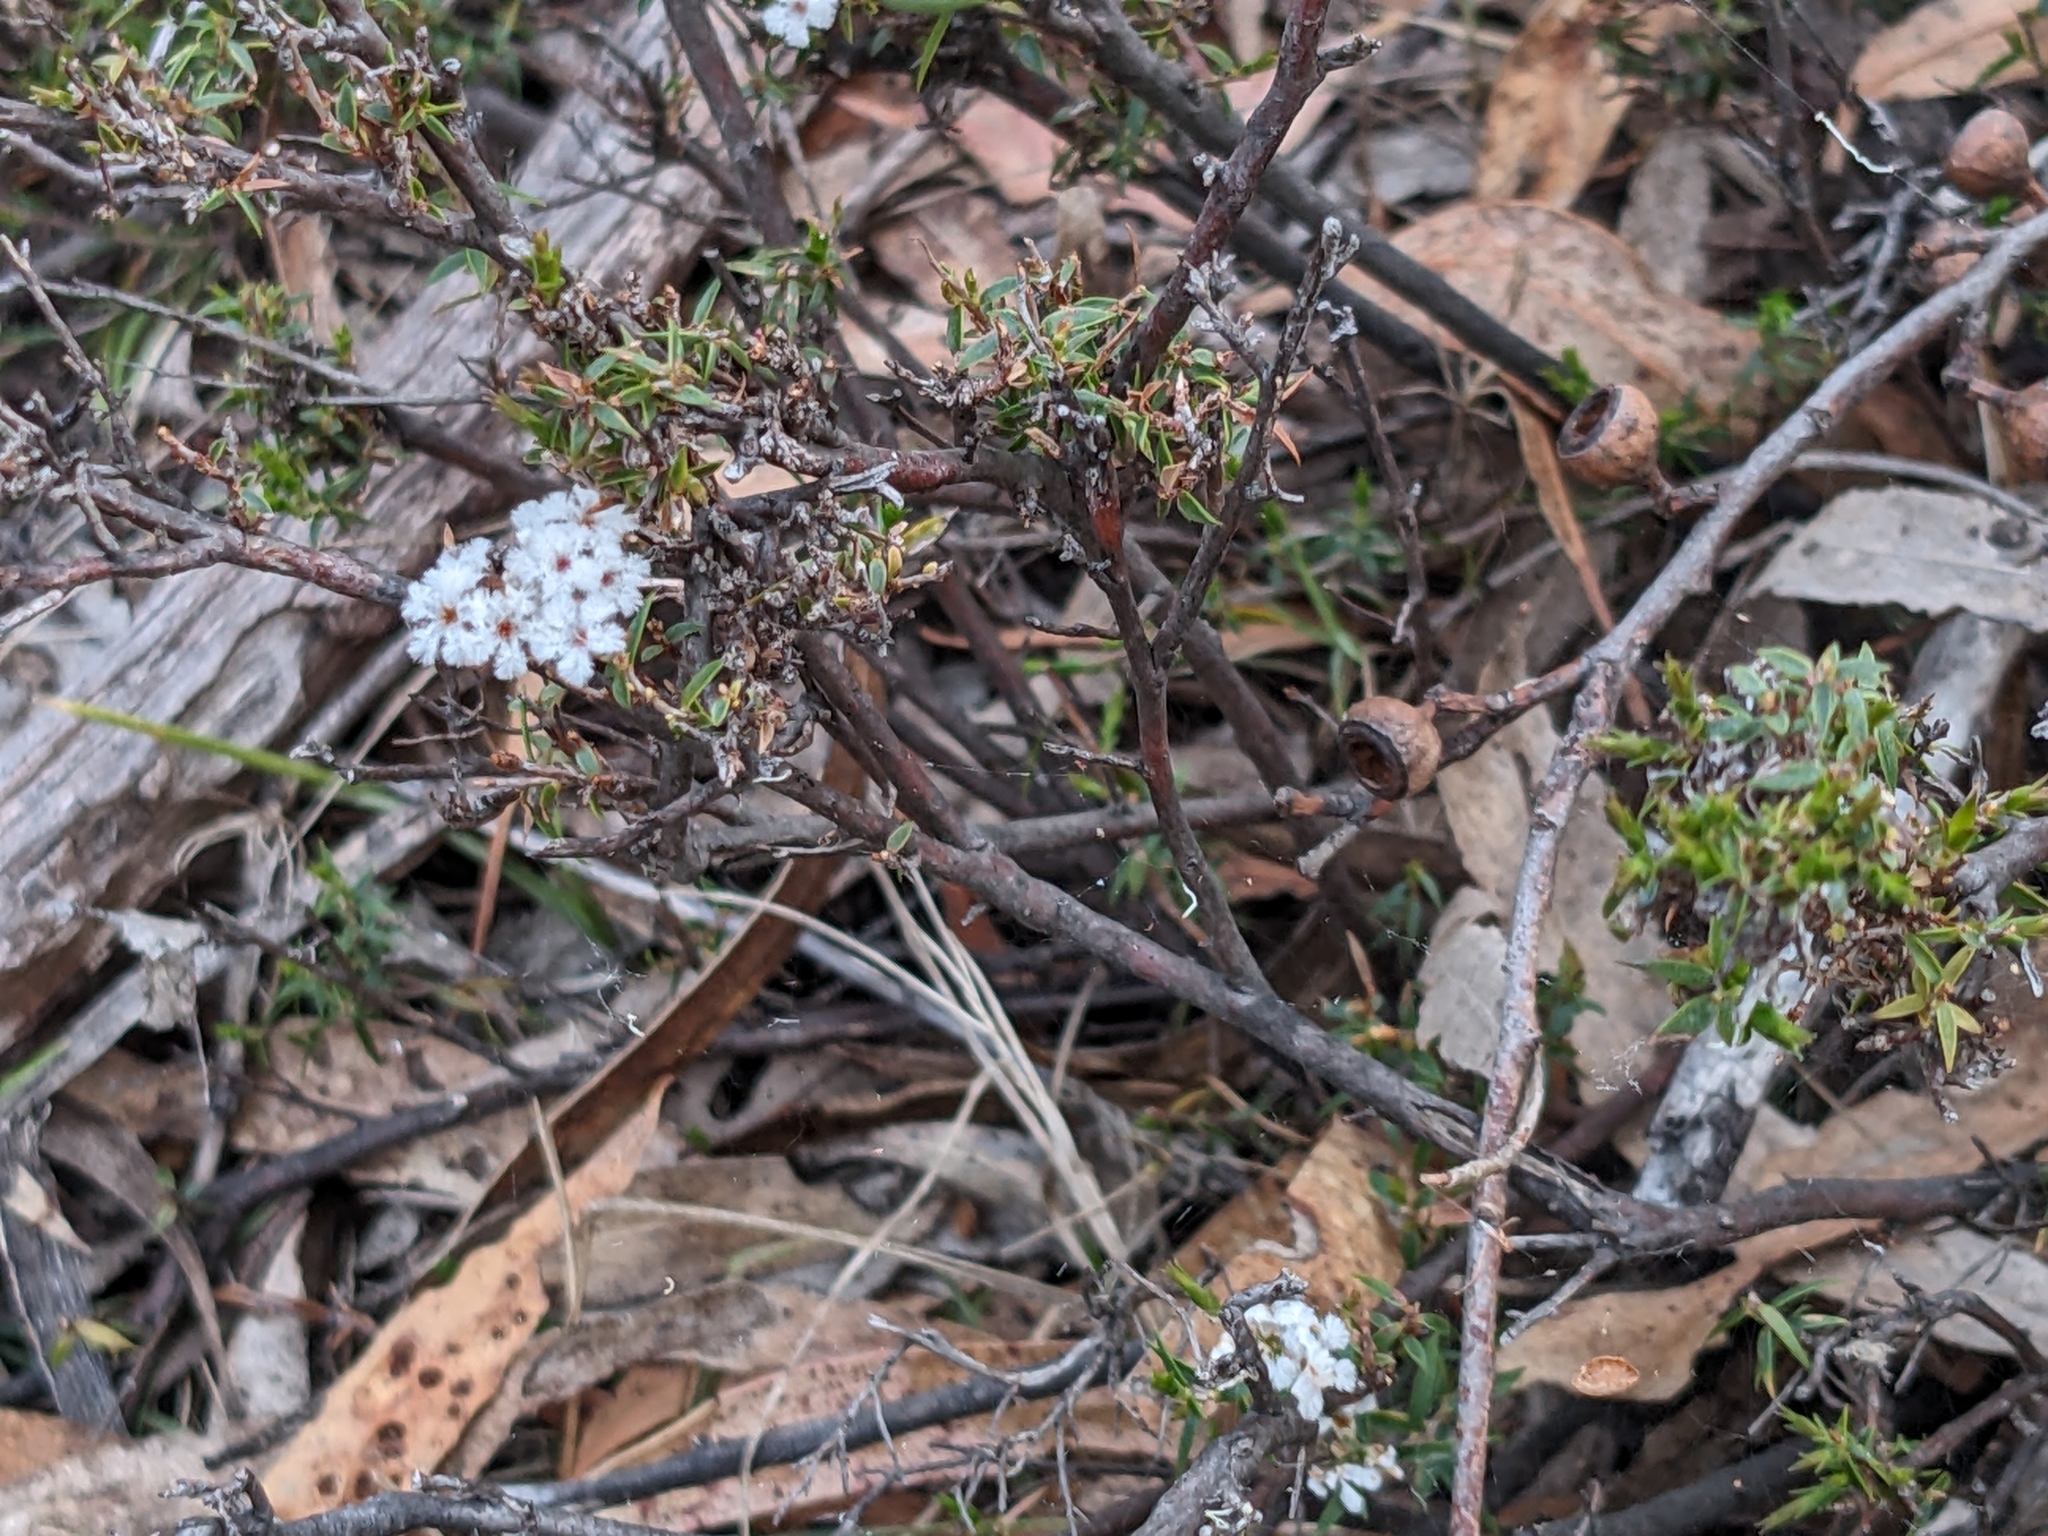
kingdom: Plantae
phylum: Tracheophyta
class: Magnoliopsida
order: Ericales
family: Ericaceae
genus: Leucopogon
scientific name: Leucopogon virgatus
